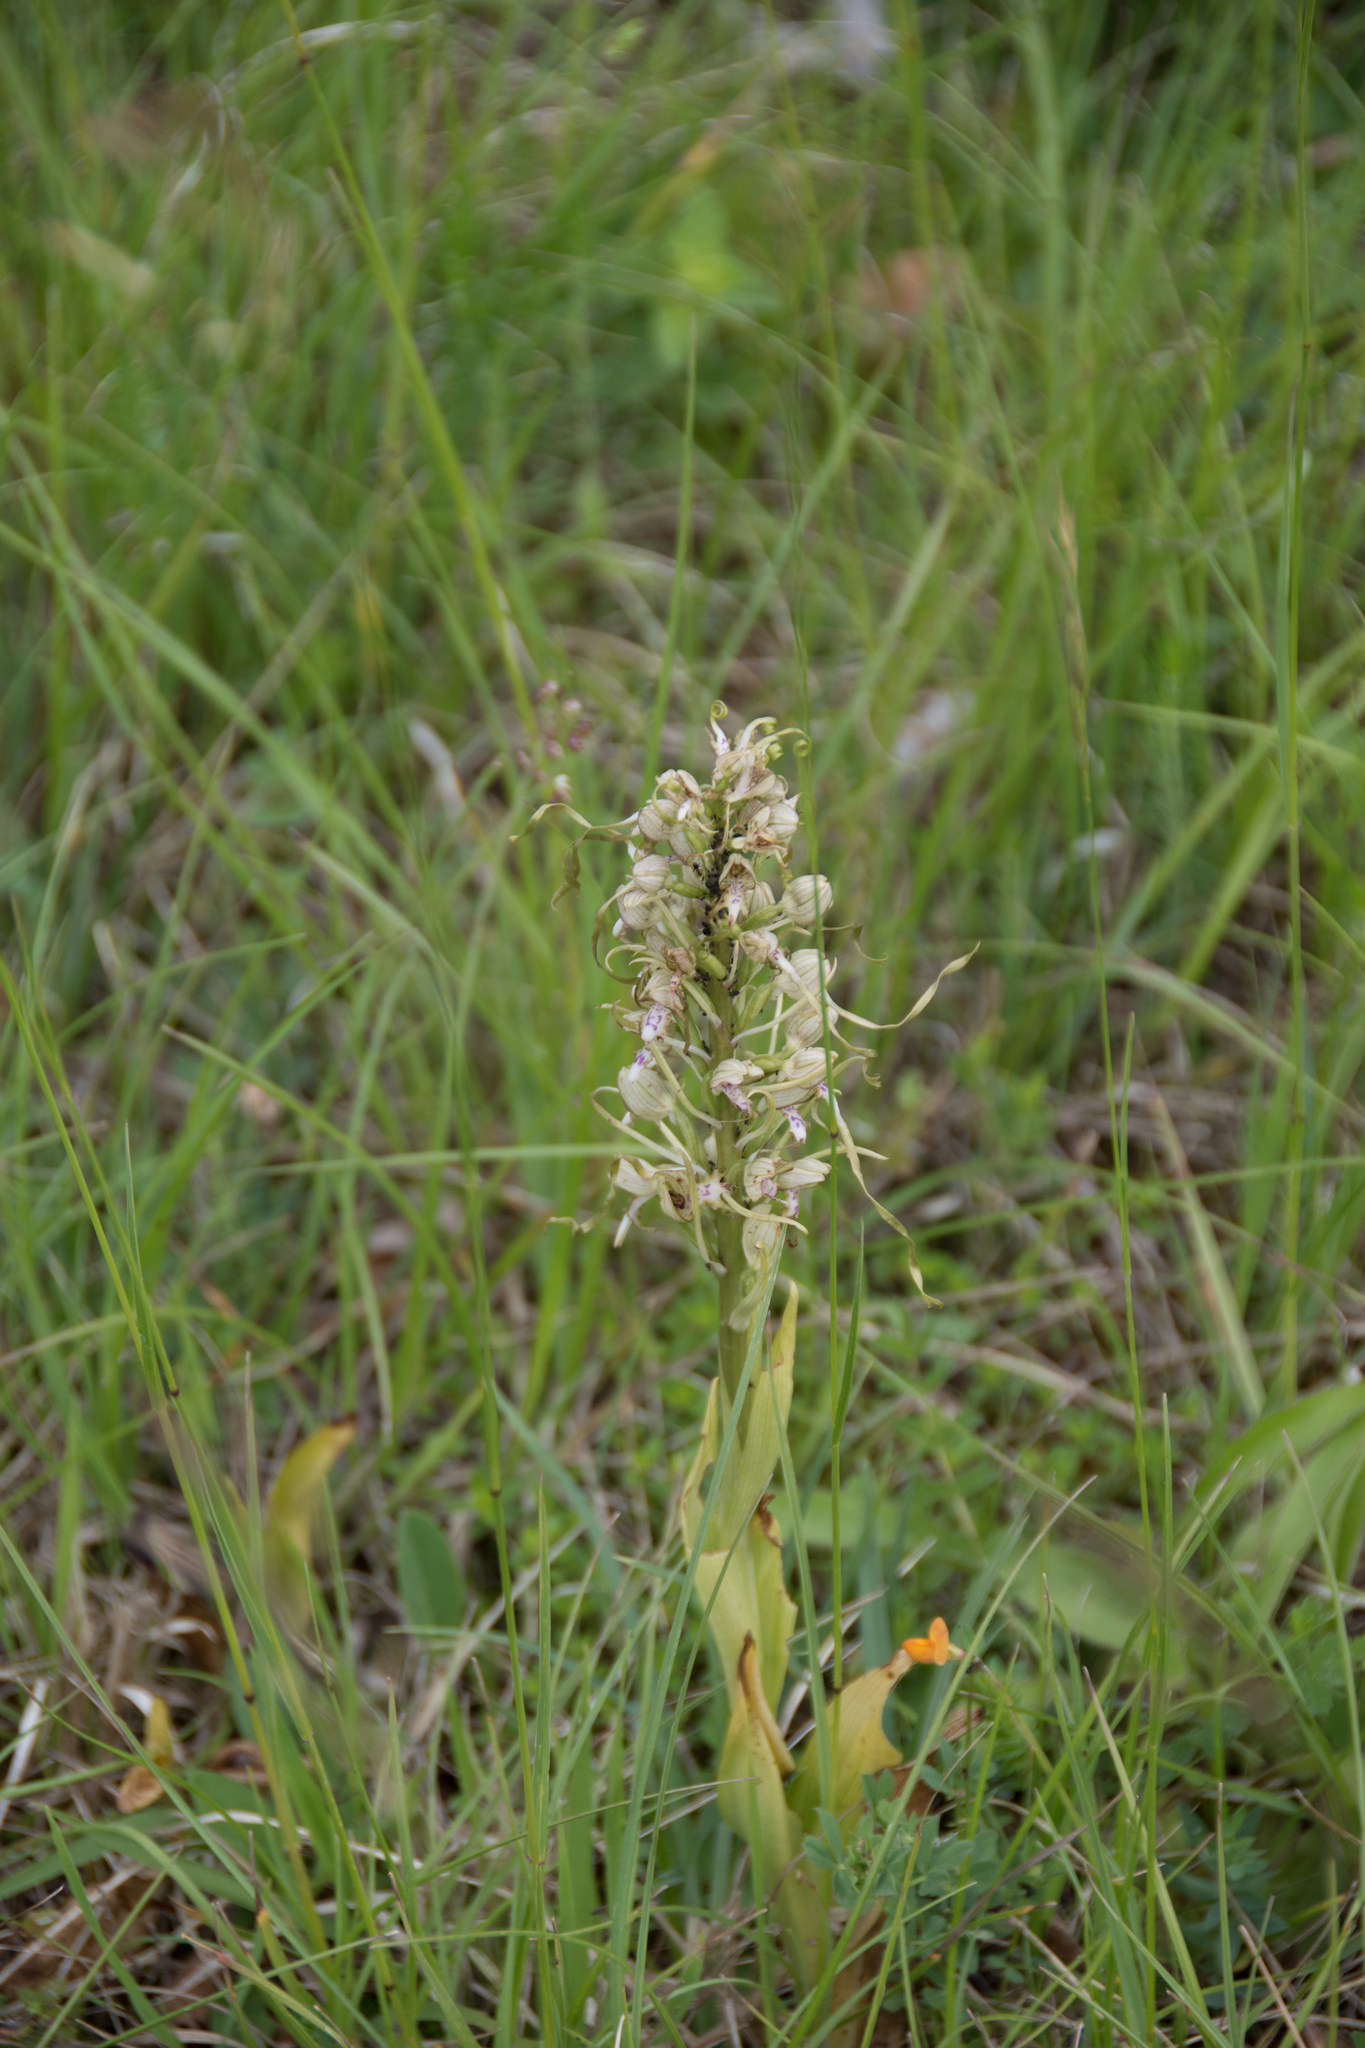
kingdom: Plantae
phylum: Tracheophyta
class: Liliopsida
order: Asparagales
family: Orchidaceae
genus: Himantoglossum
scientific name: Himantoglossum hircinum
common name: Lizard orchid
